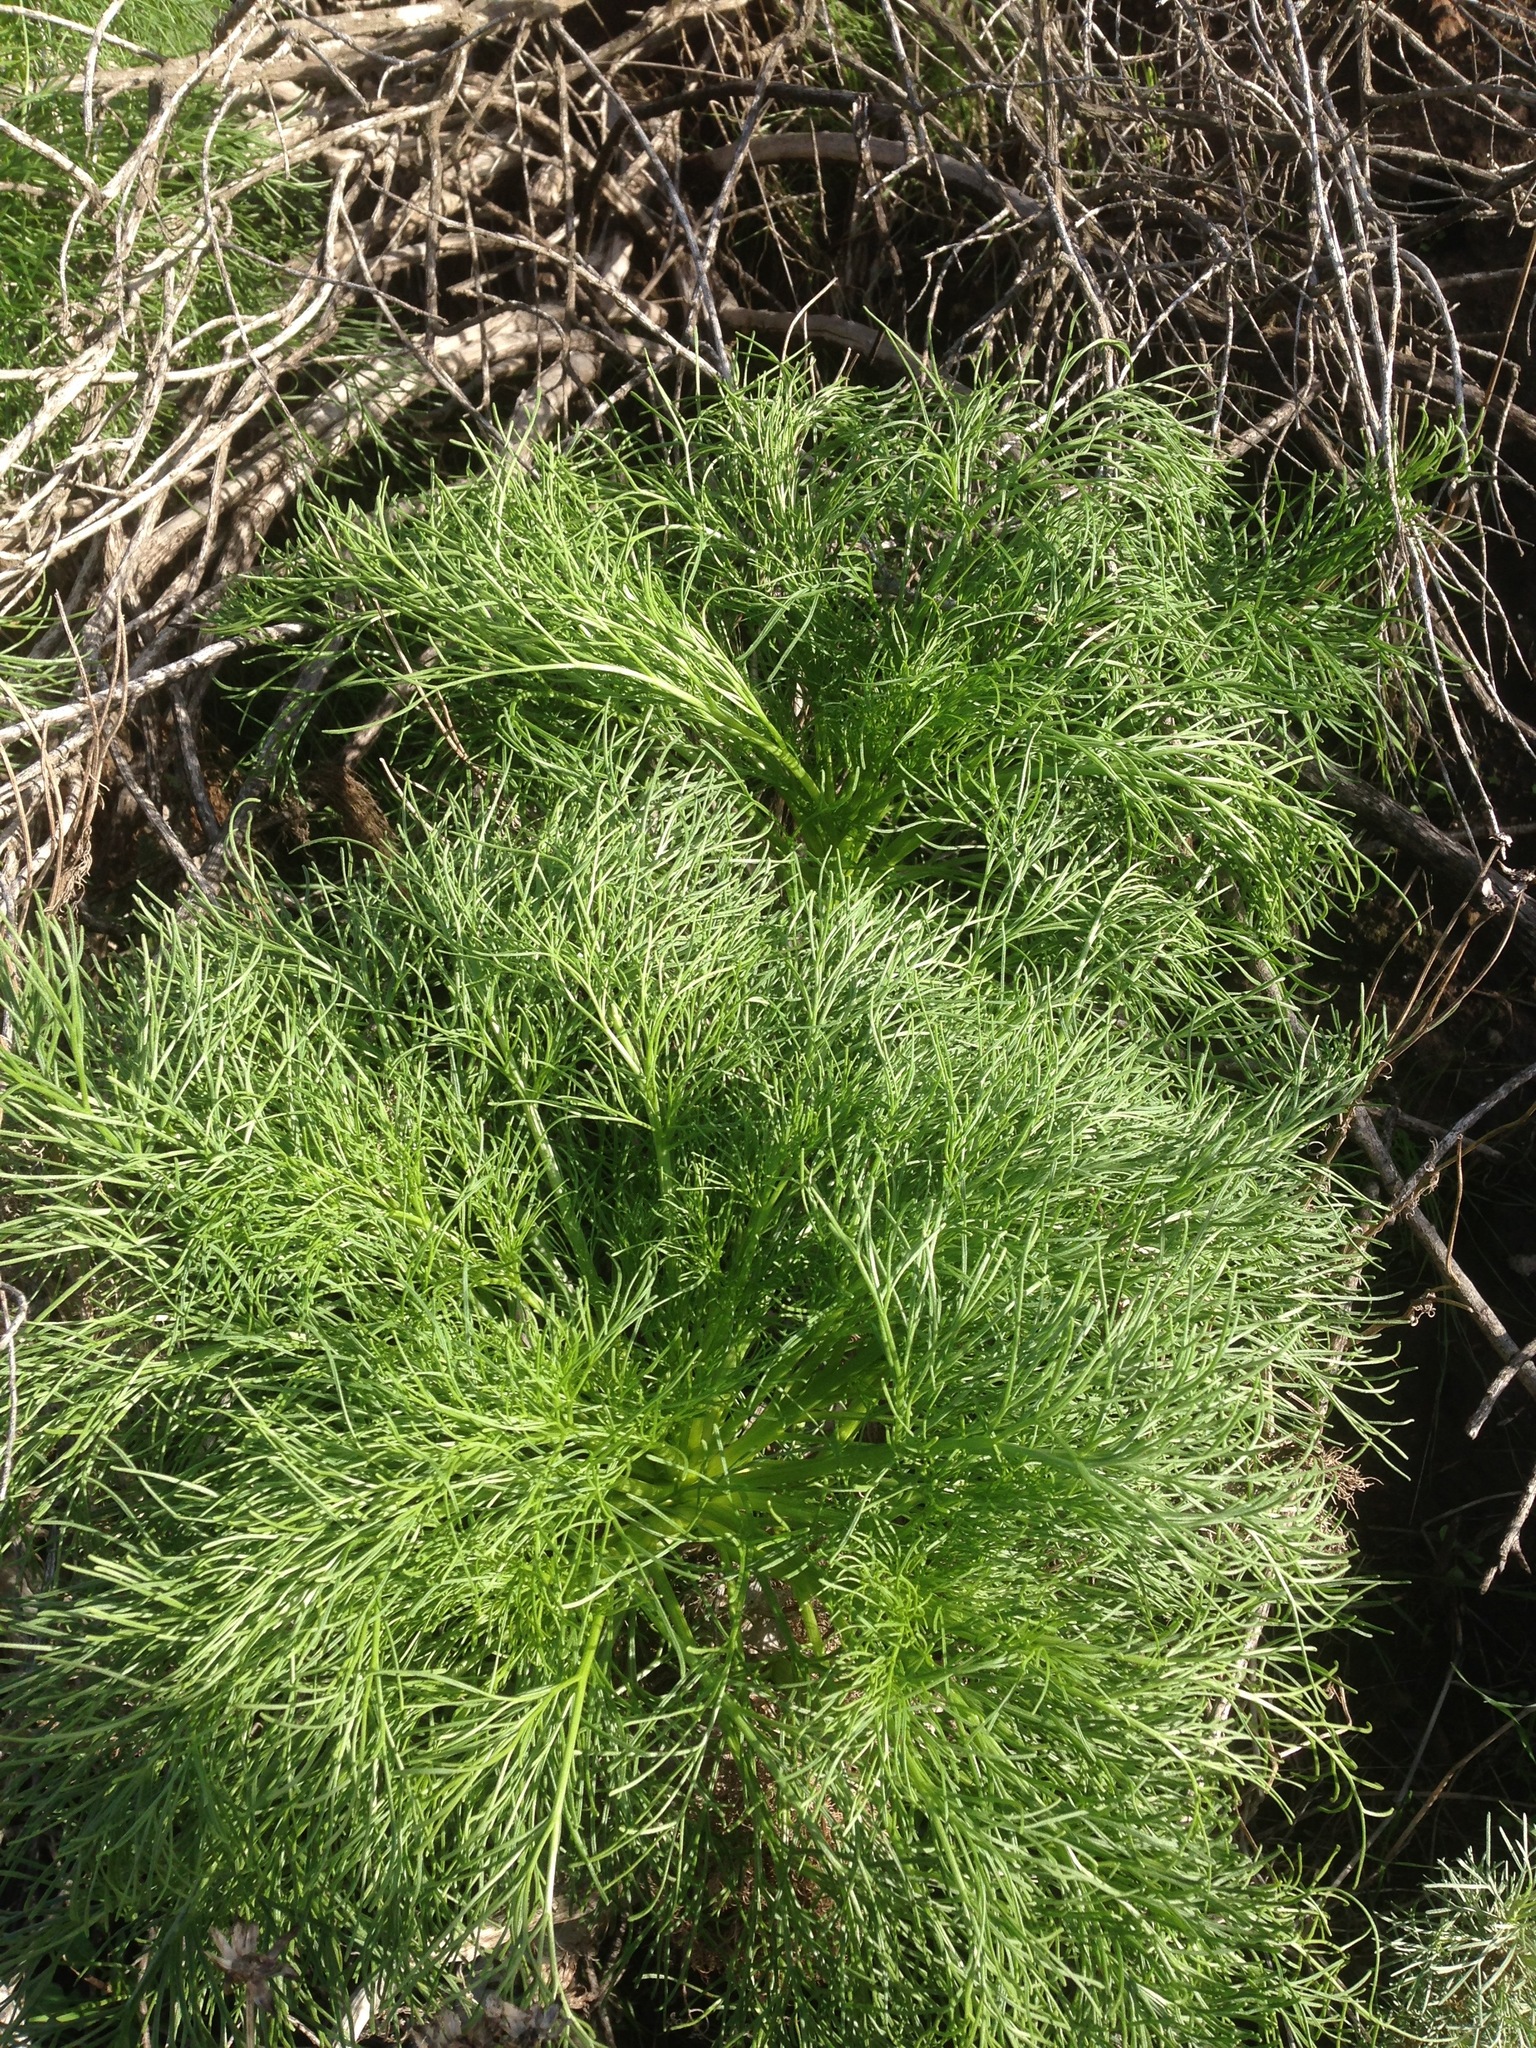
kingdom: Plantae
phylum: Tracheophyta
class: Magnoliopsida
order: Asterales
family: Asteraceae
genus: Coreopsis
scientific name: Coreopsis gigantea
